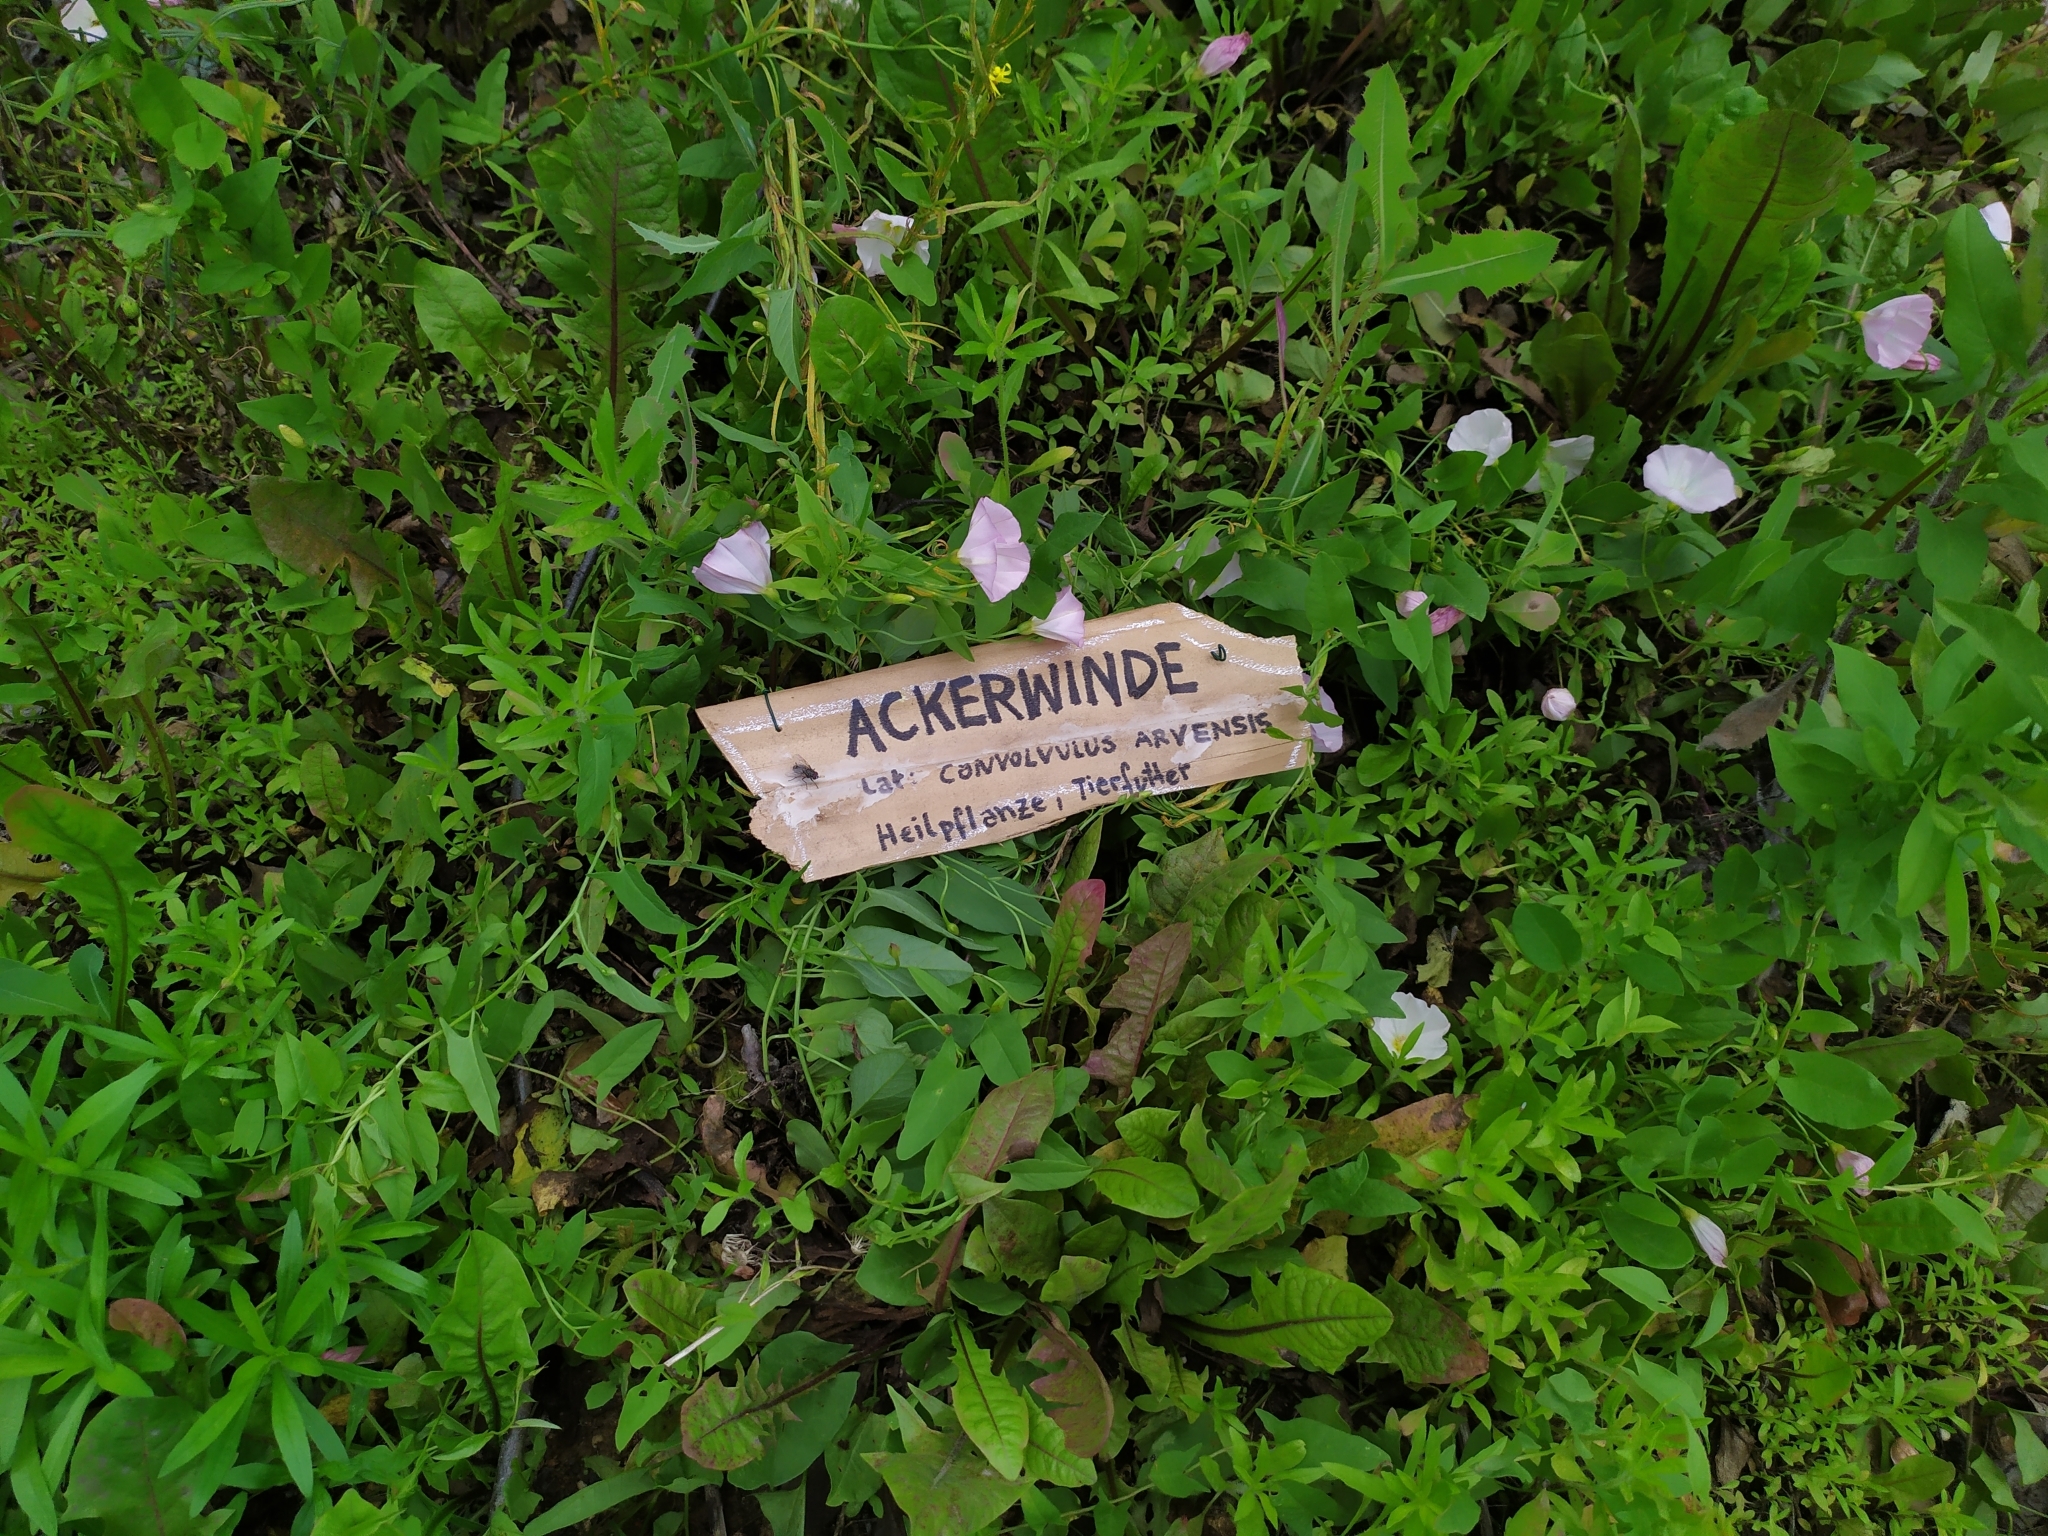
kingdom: Plantae
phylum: Tracheophyta
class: Magnoliopsida
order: Solanales
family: Convolvulaceae
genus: Convolvulus
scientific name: Convolvulus arvensis
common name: Field bindweed
